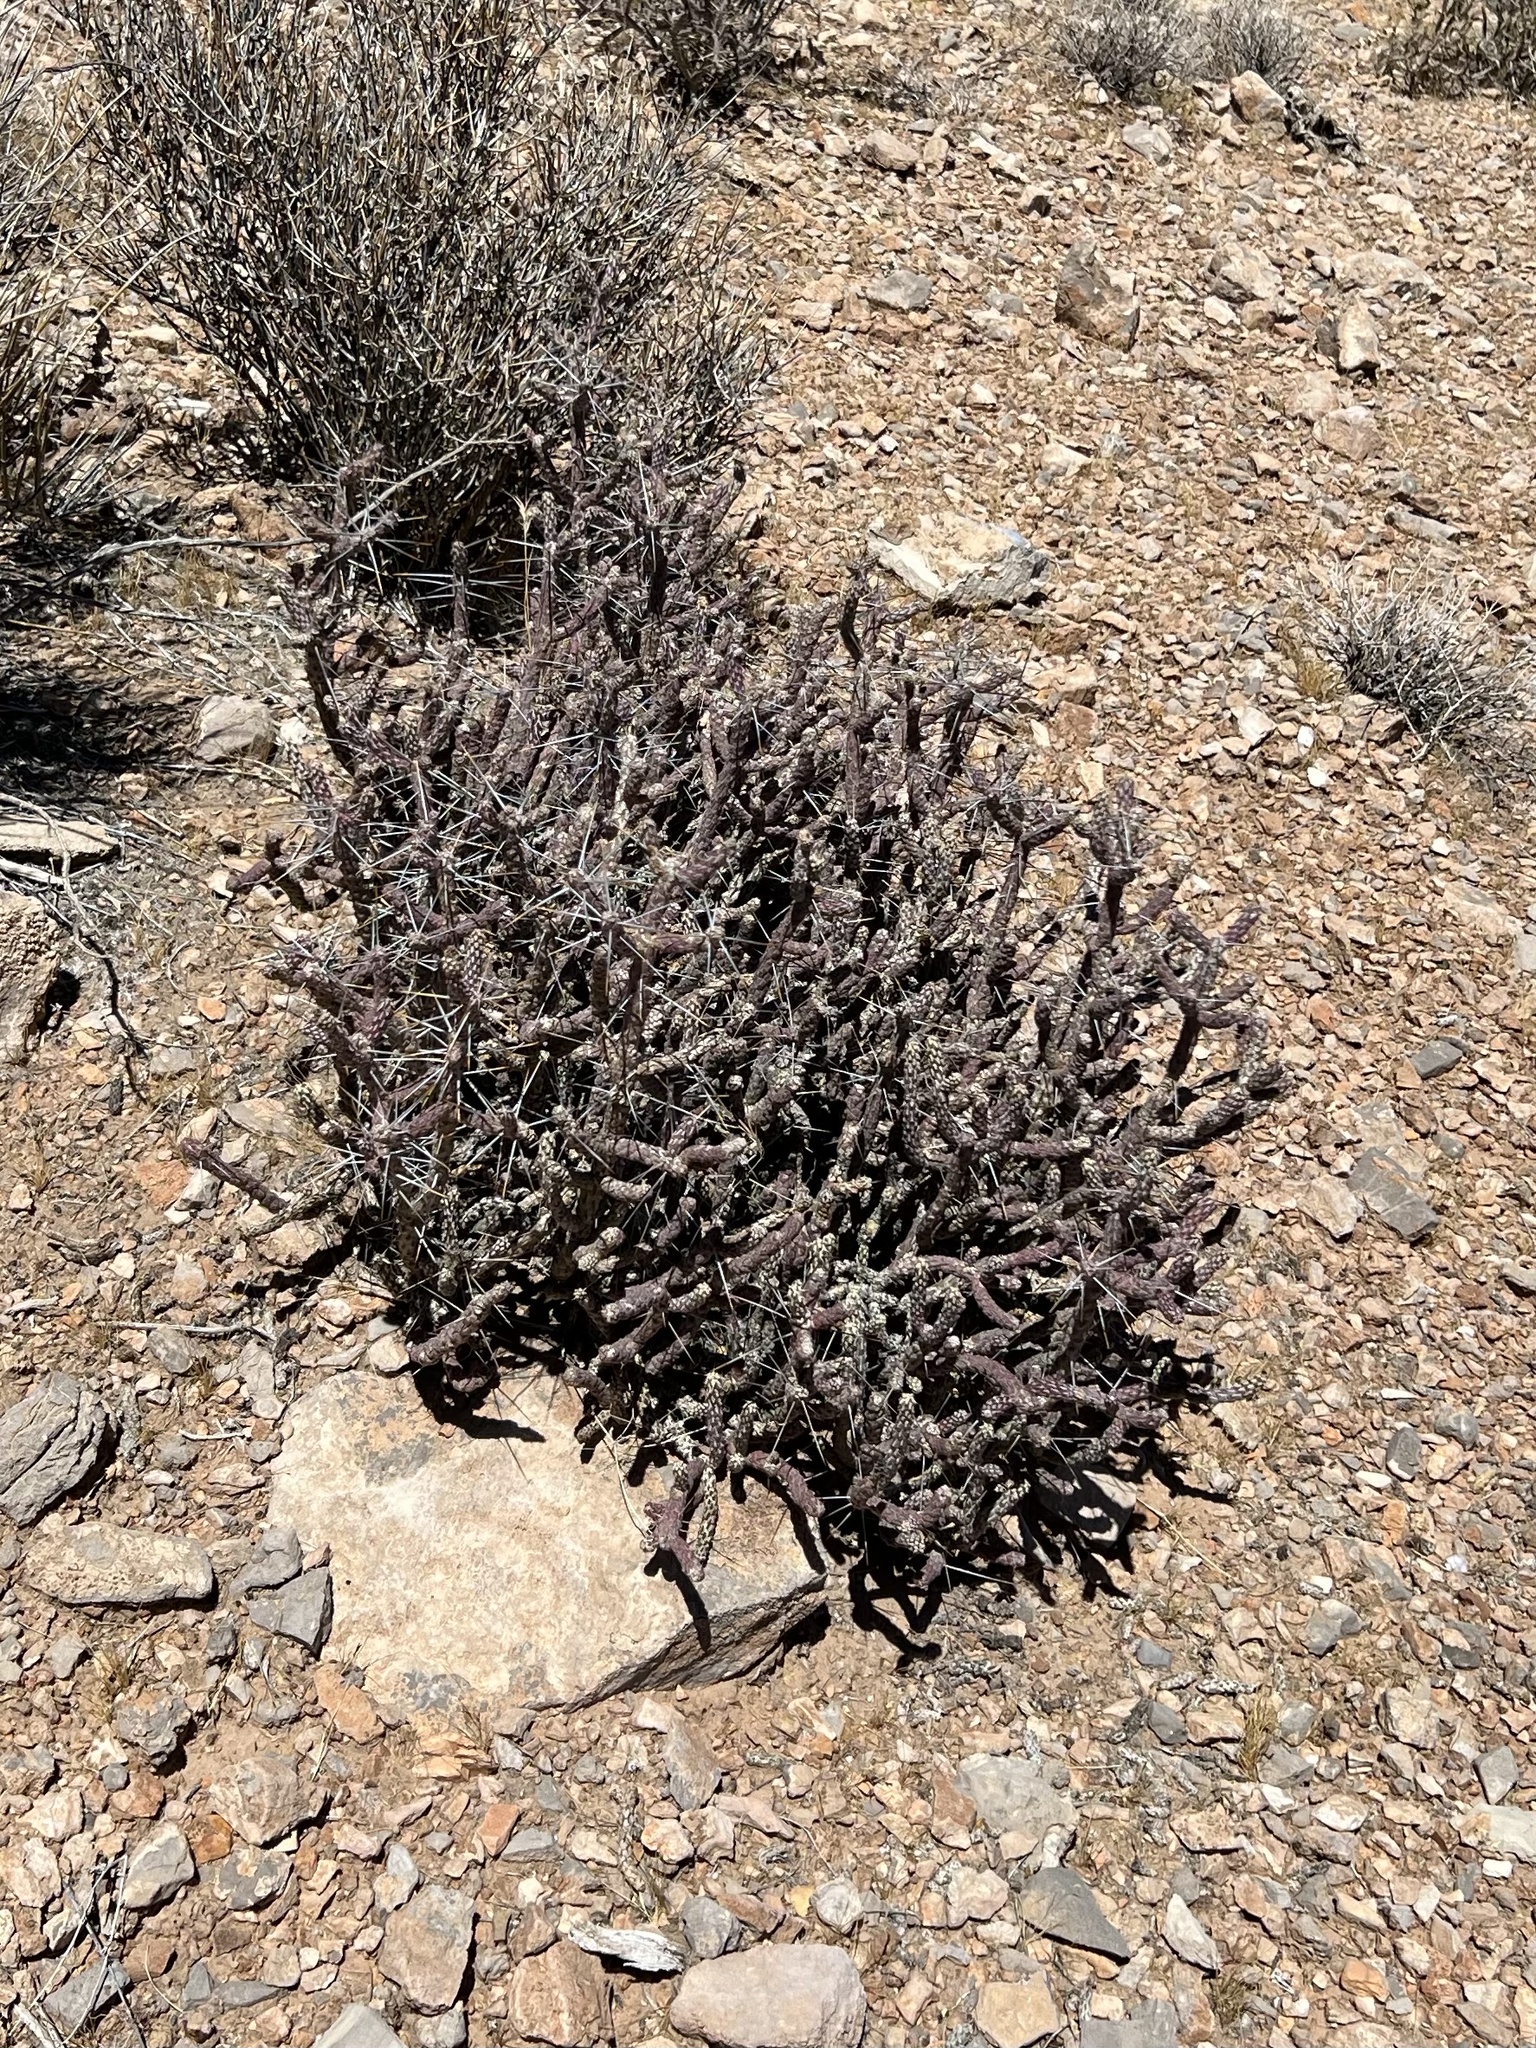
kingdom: Plantae
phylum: Tracheophyta
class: Magnoliopsida
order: Caryophyllales
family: Cactaceae
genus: Cylindropuntia
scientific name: Cylindropuntia ramosissima
